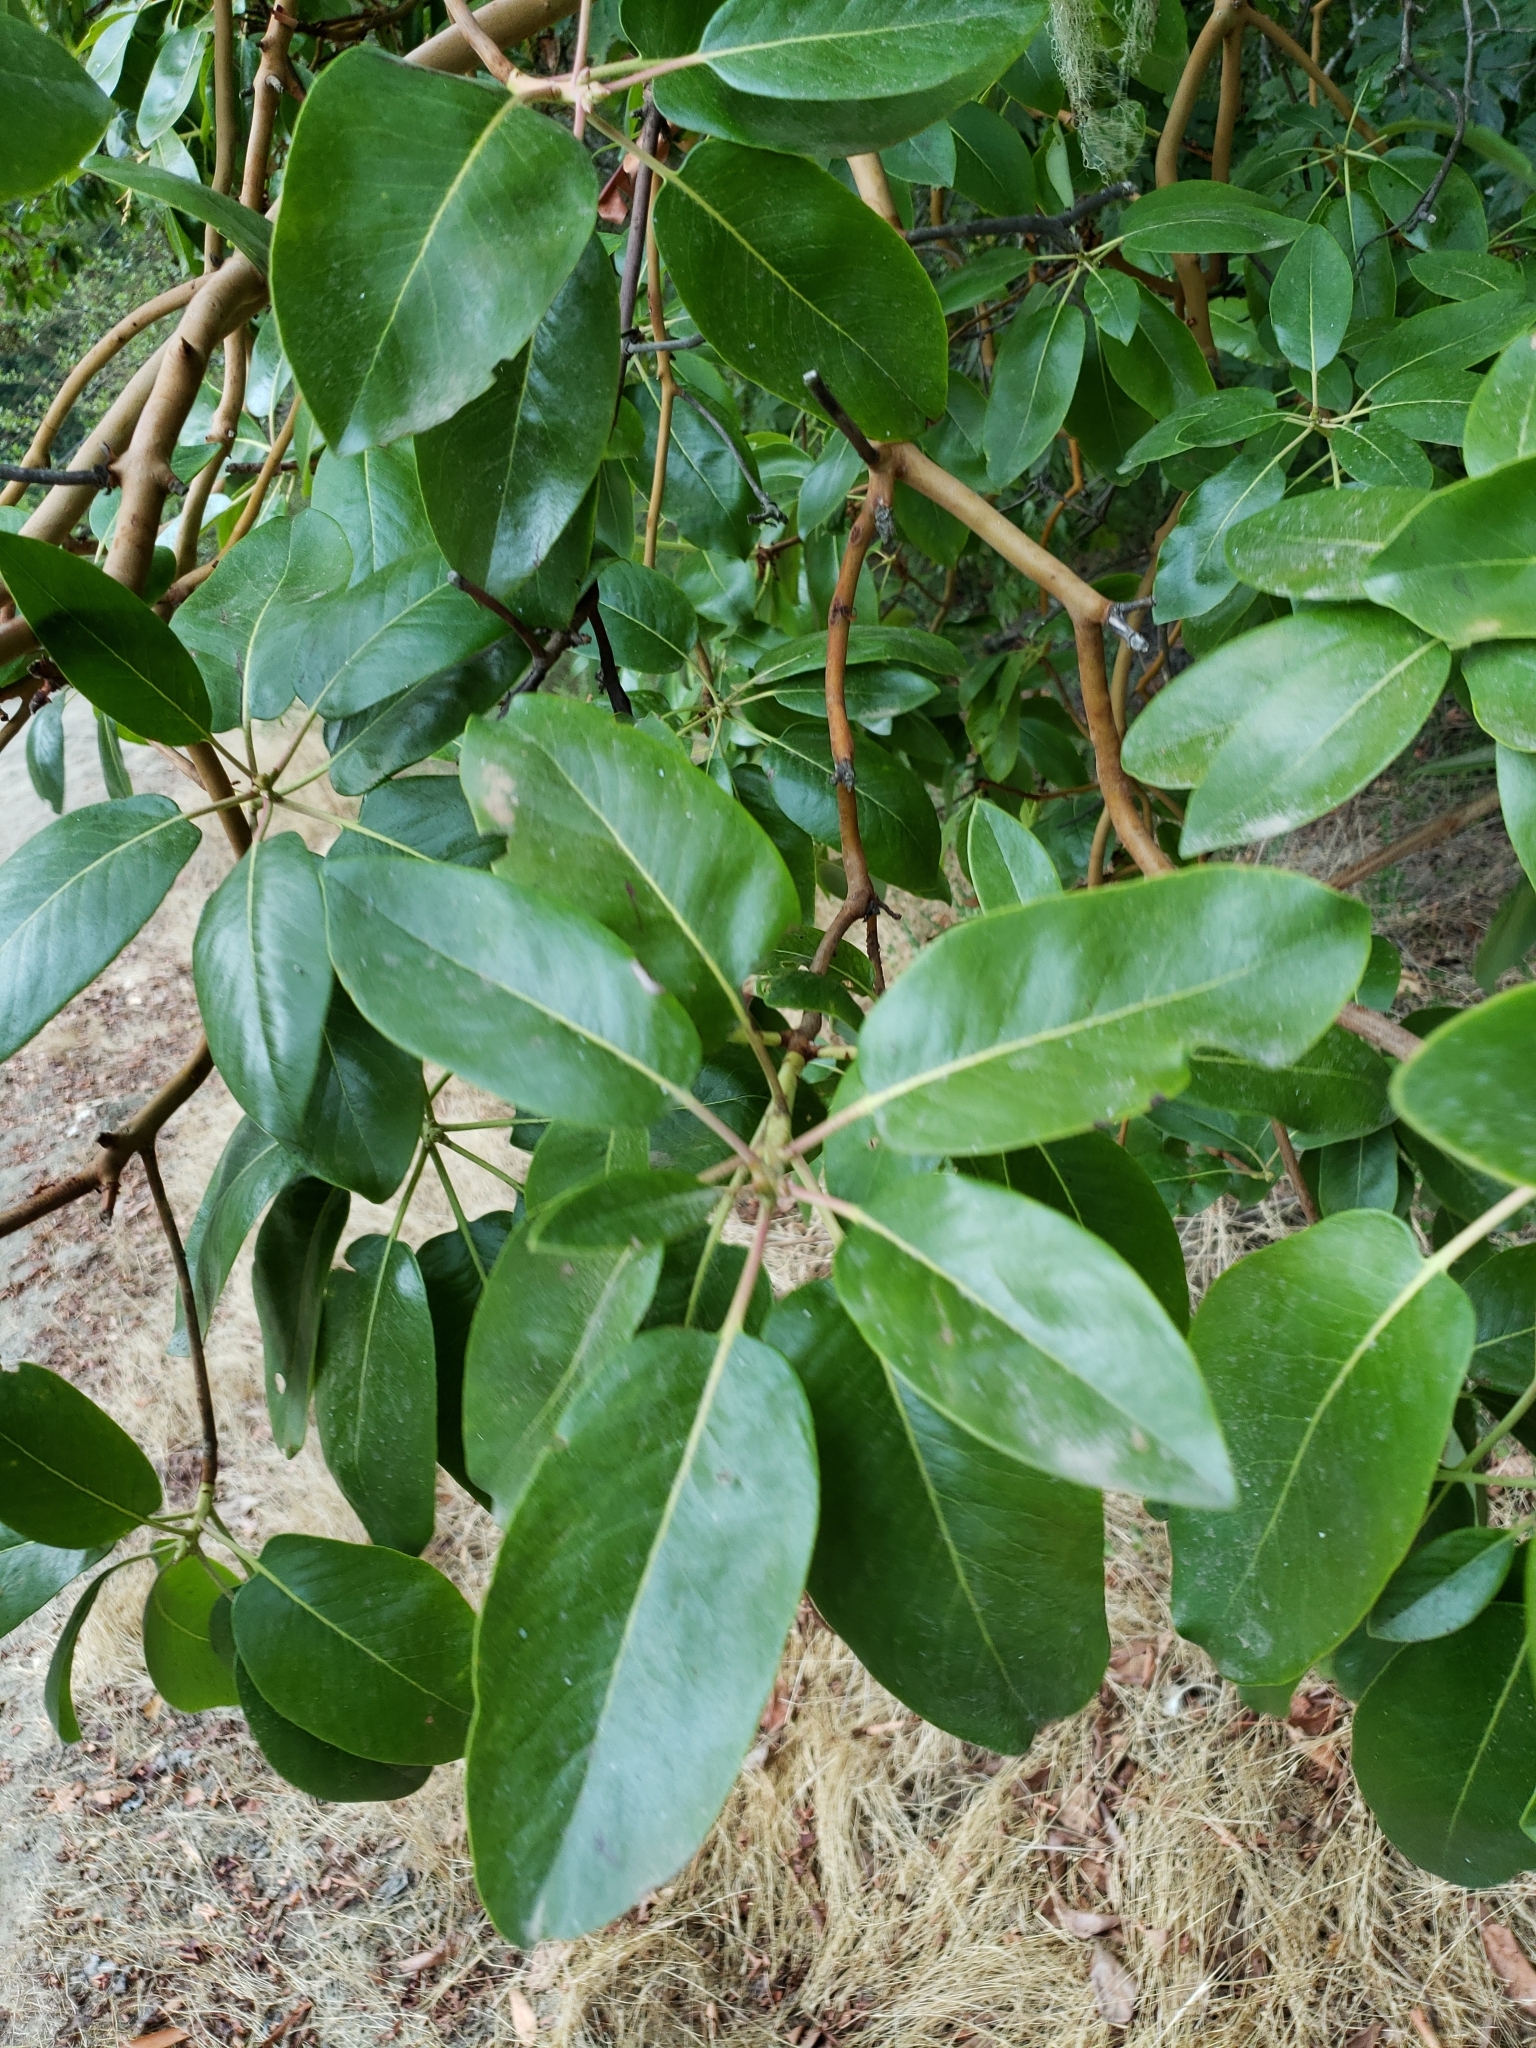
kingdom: Plantae
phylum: Tracheophyta
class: Magnoliopsida
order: Ericales
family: Ericaceae
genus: Arbutus
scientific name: Arbutus menziesii
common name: Pacific madrone
